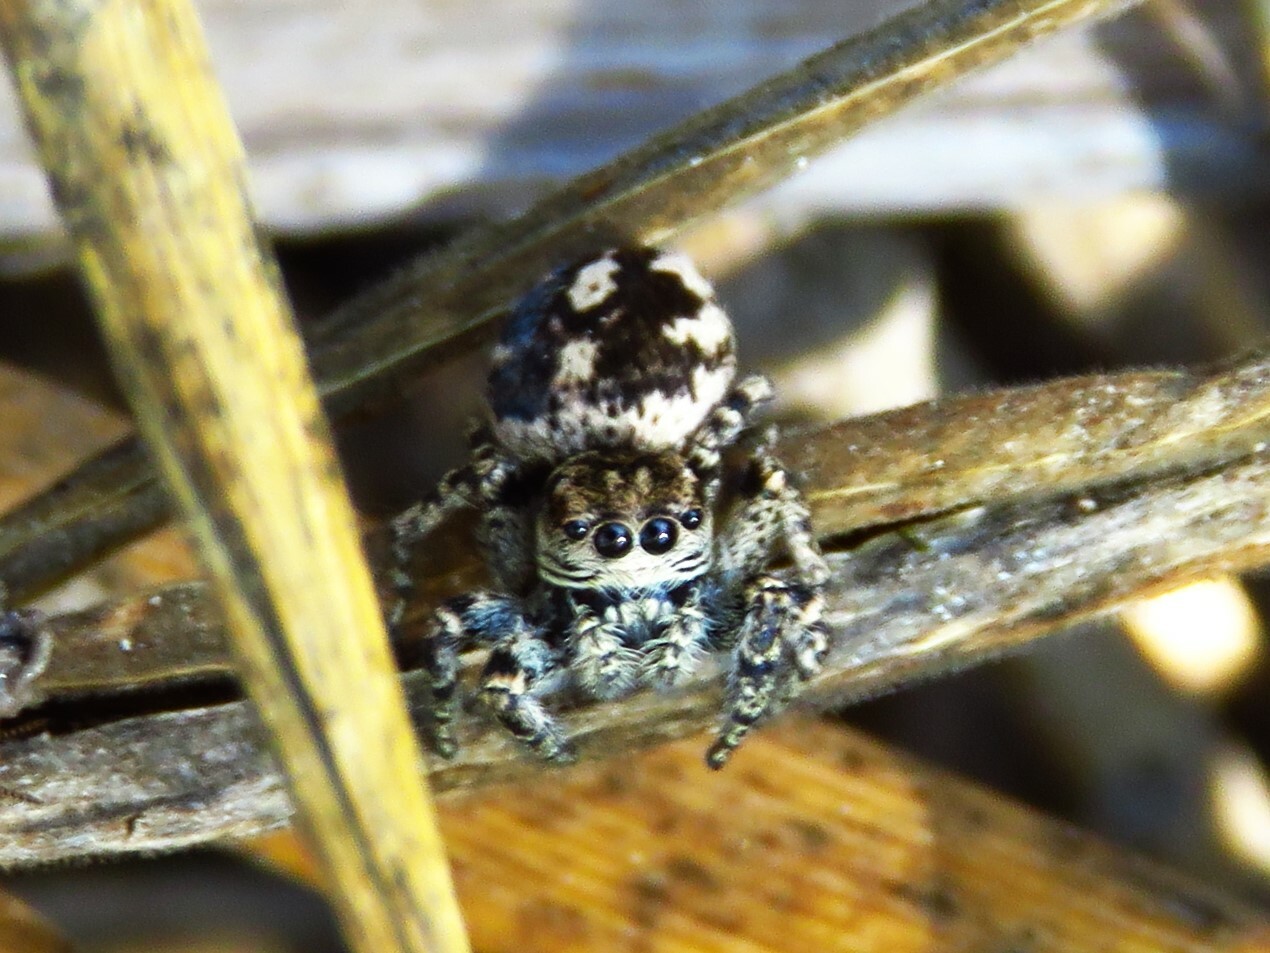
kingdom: Animalia
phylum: Arthropoda
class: Arachnida
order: Araneae
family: Salticidae
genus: Habronattus
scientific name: Habronattus fallax
